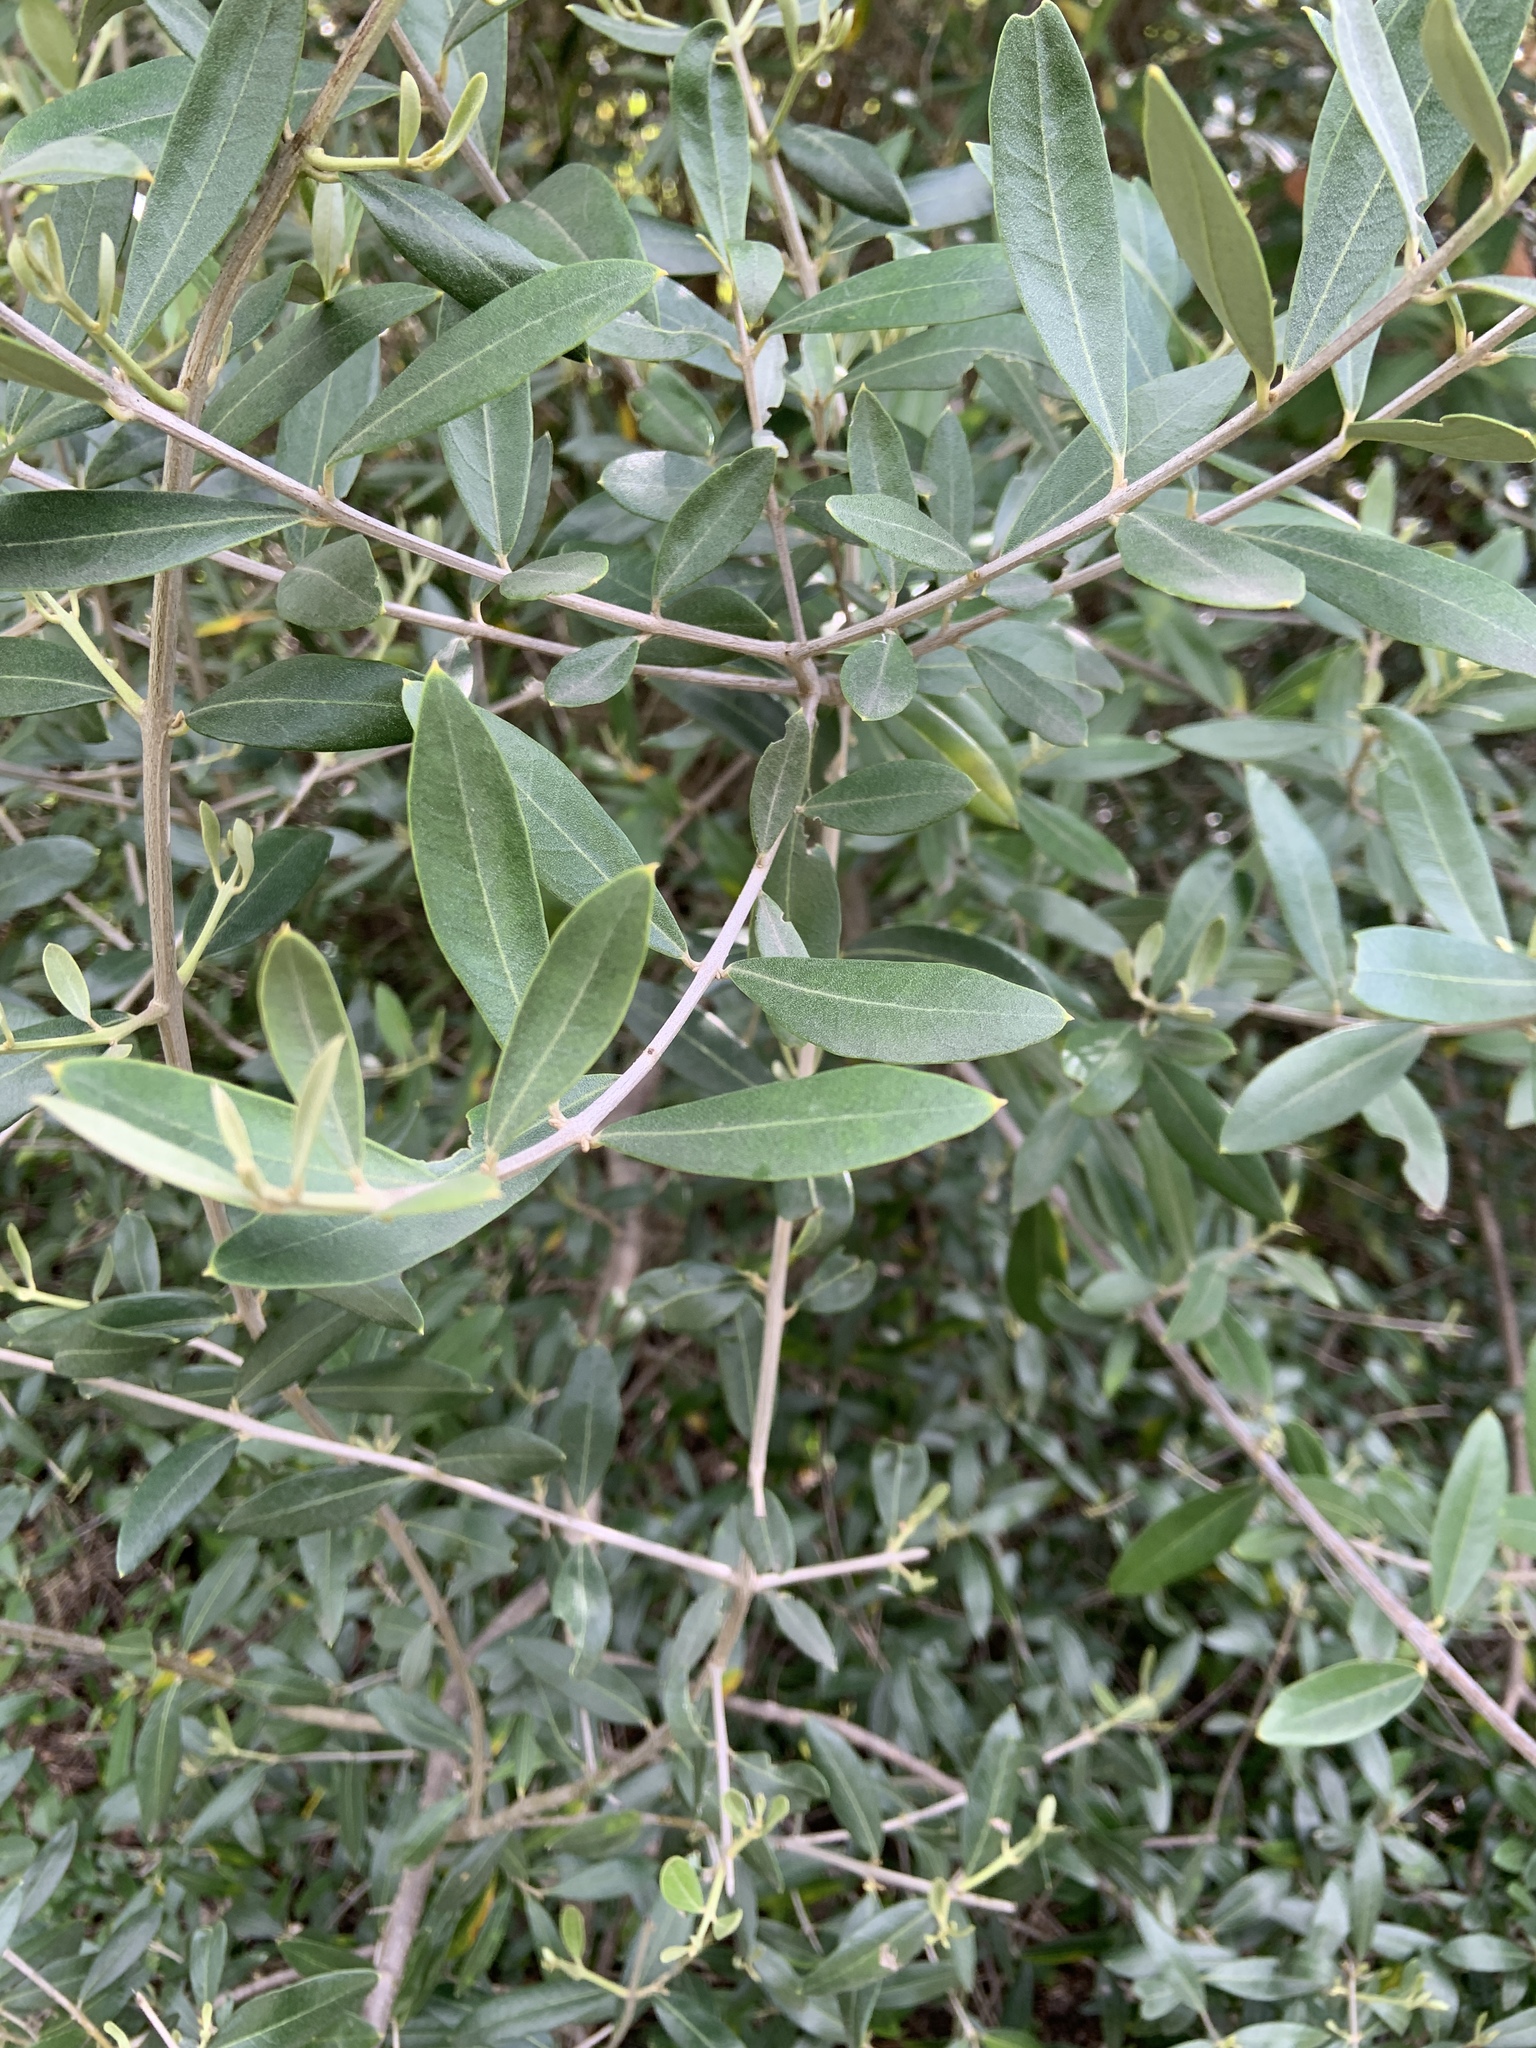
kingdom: Plantae
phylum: Tracheophyta
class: Magnoliopsida
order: Lamiales
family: Oleaceae
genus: Olea
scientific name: Olea europaea
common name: Olive
